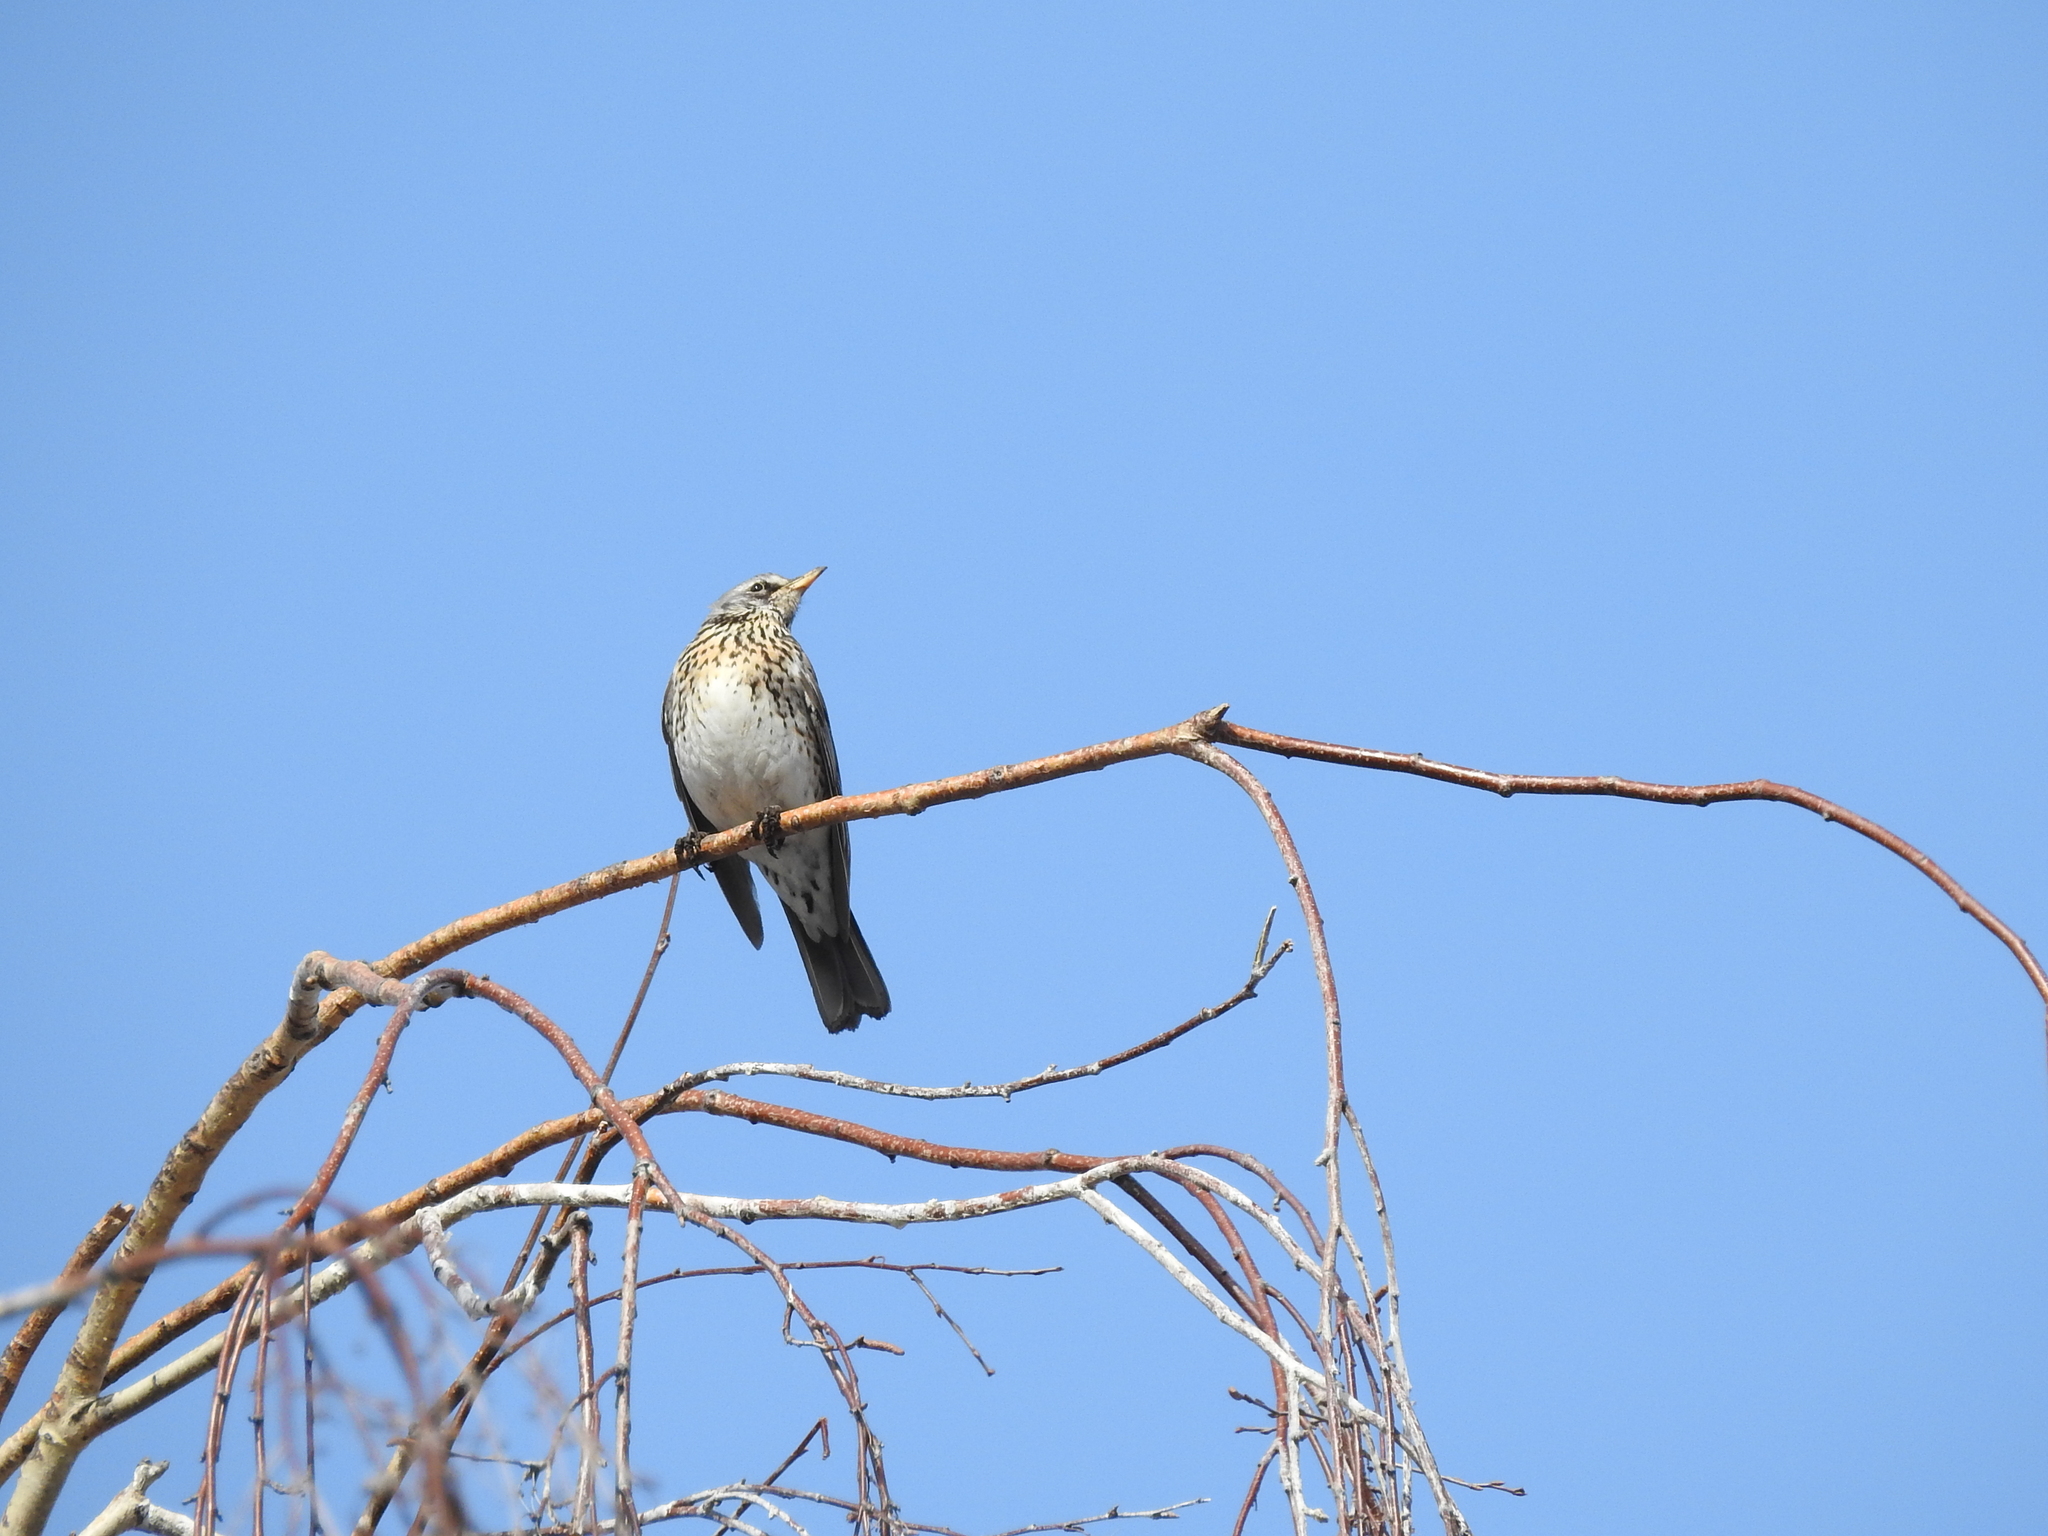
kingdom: Animalia
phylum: Chordata
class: Aves
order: Passeriformes
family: Turdidae
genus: Turdus
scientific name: Turdus pilaris
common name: Fieldfare
